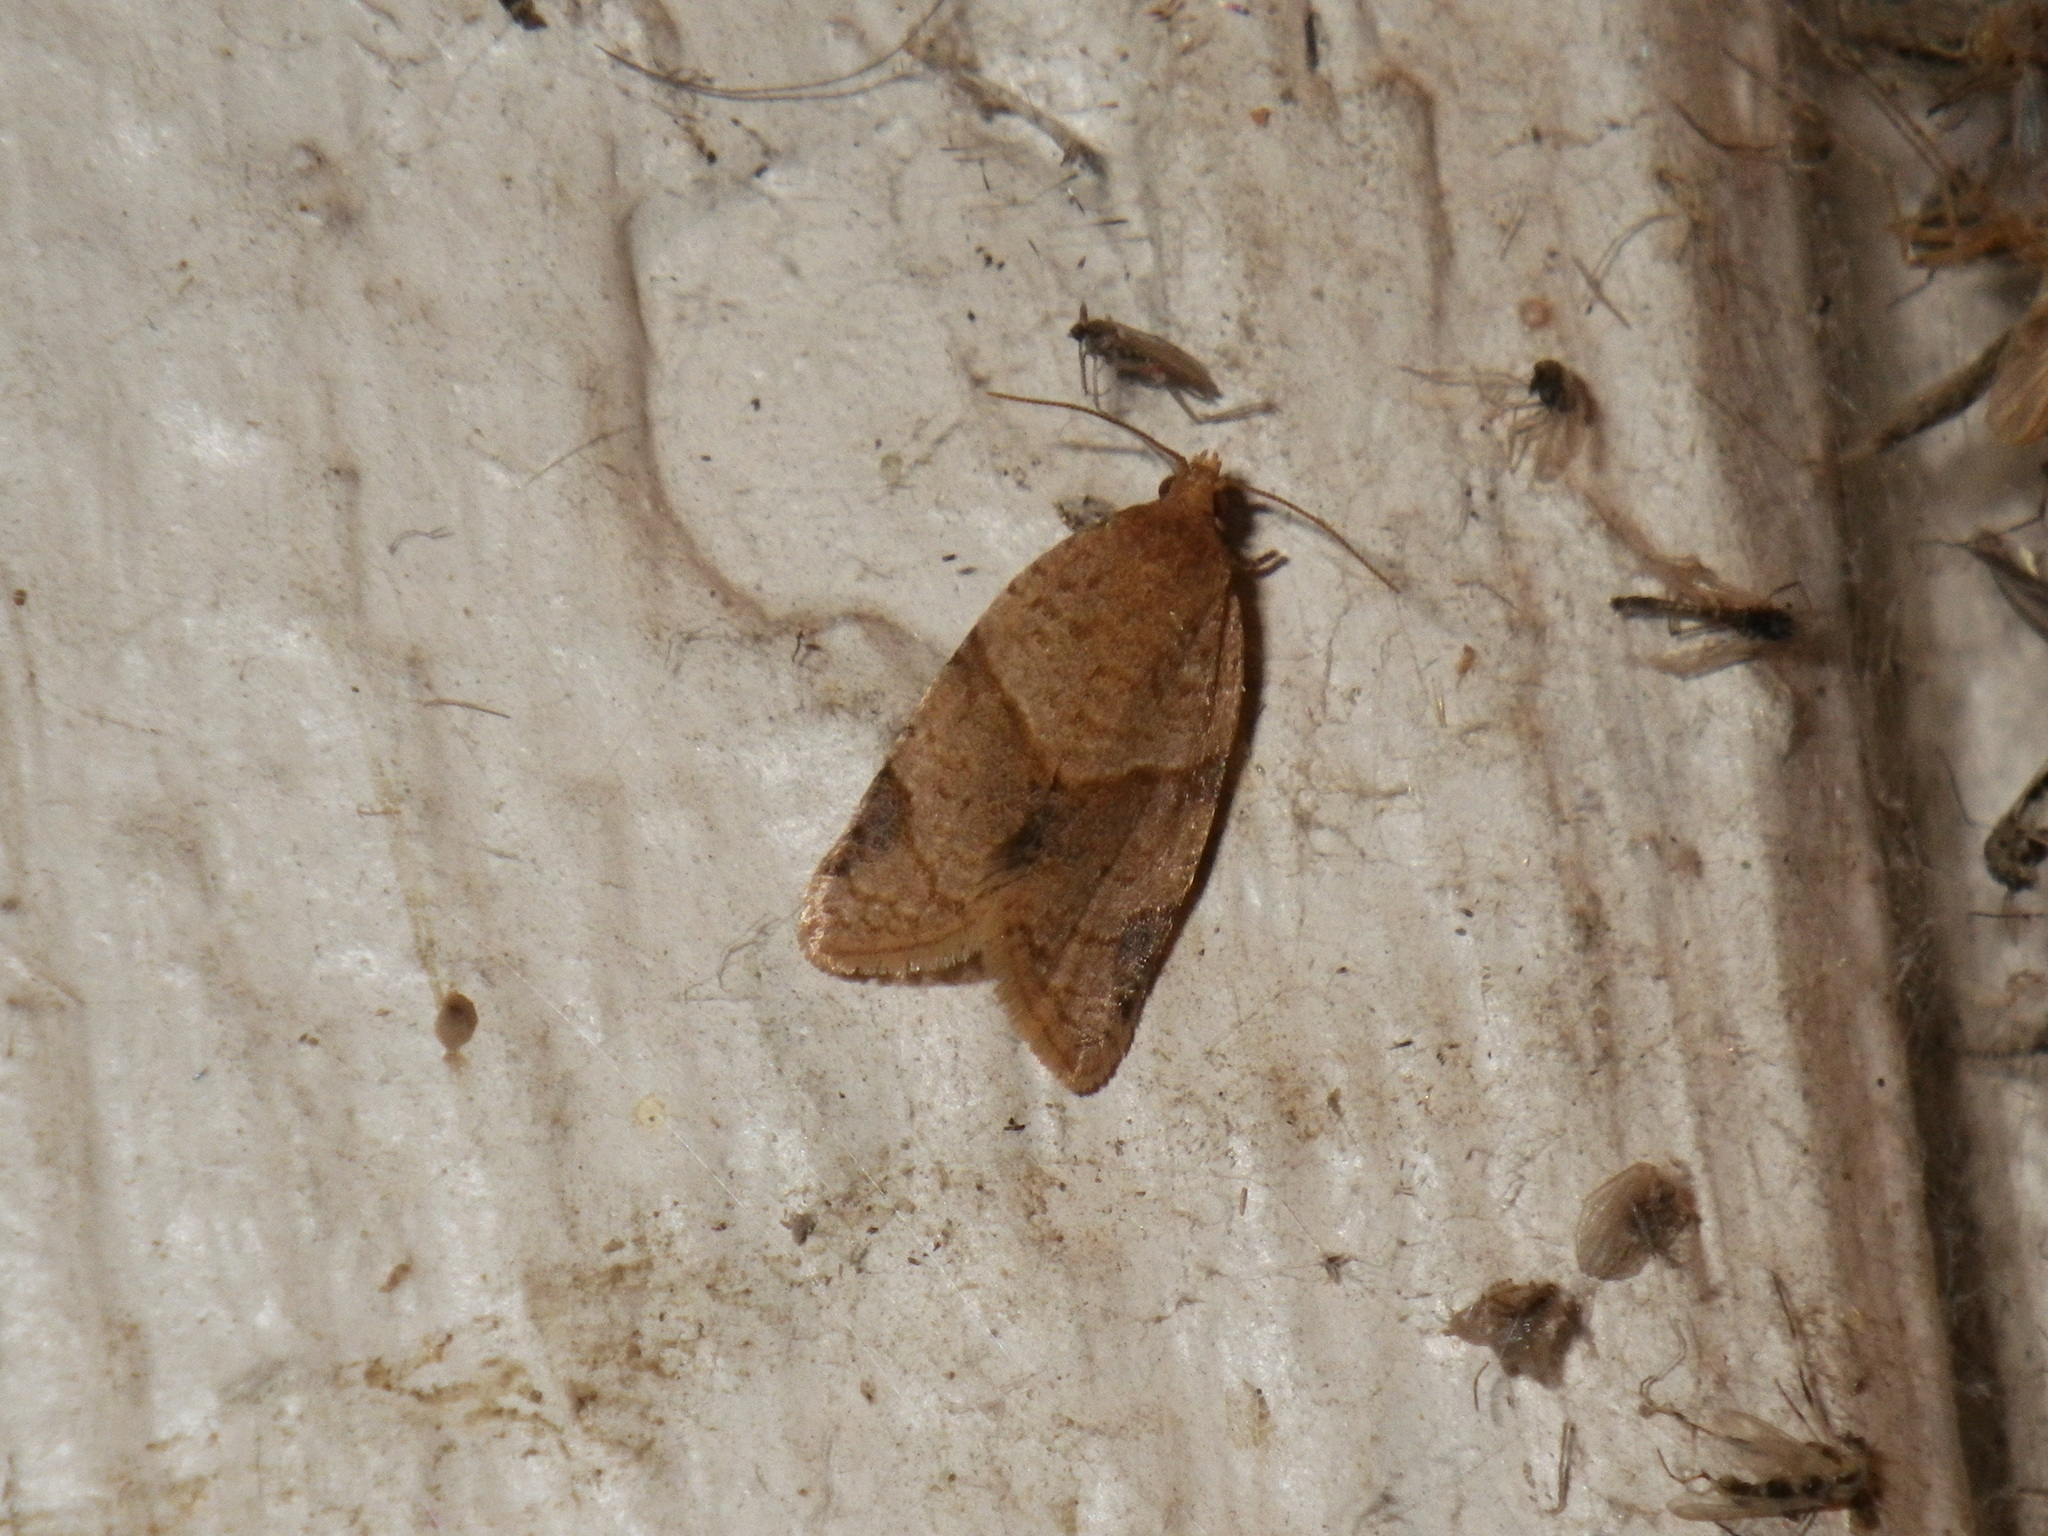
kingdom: Animalia
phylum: Arthropoda
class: Insecta
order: Lepidoptera
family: Tortricidae
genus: Clepsis
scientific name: Clepsis peritana
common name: Garden tortrix
